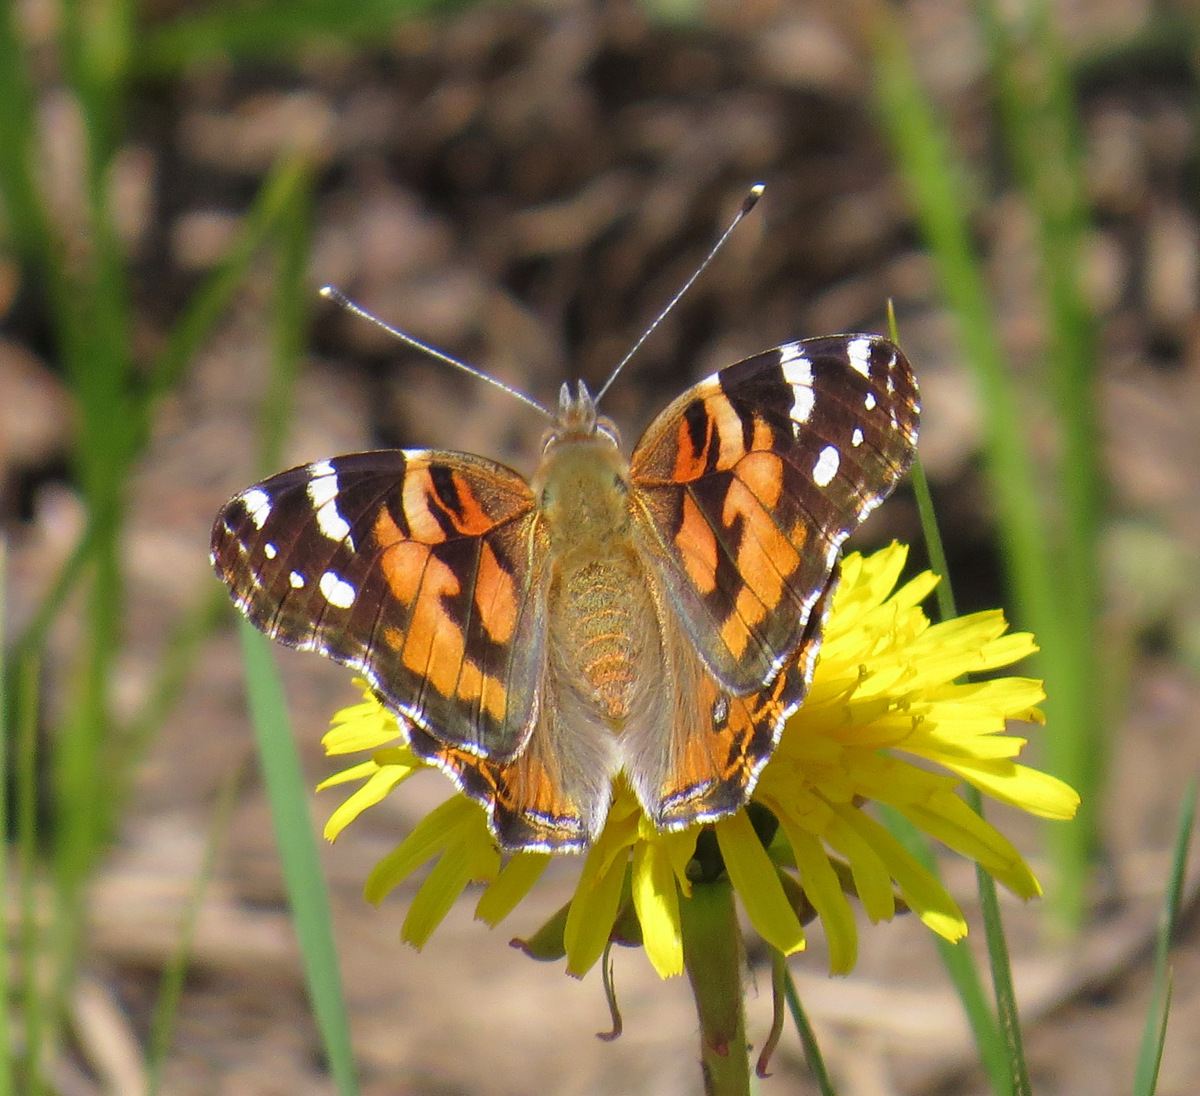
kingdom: Animalia
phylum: Arthropoda
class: Insecta
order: Lepidoptera
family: Nymphalidae
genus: Vanessa
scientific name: Vanessa cardui
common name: Painted lady
